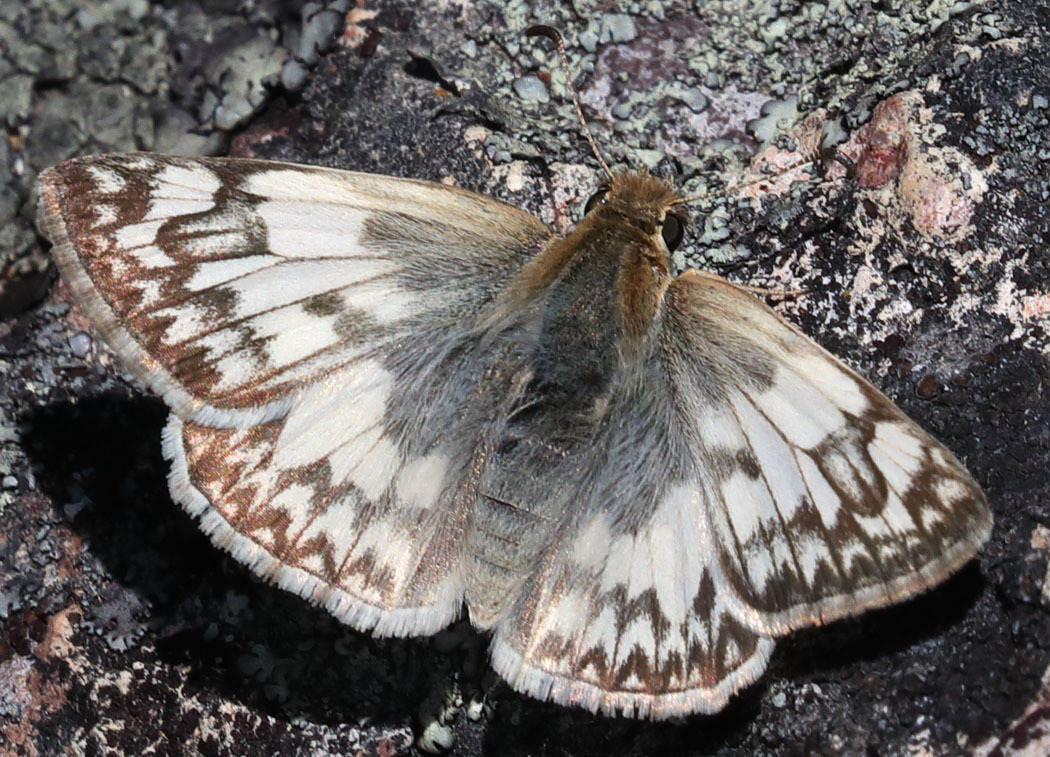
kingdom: Animalia
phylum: Arthropoda
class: Insecta
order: Lepidoptera
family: Hesperiidae
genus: Heliopetes
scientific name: Heliopetes ericetorum
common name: Northern white-skipper
